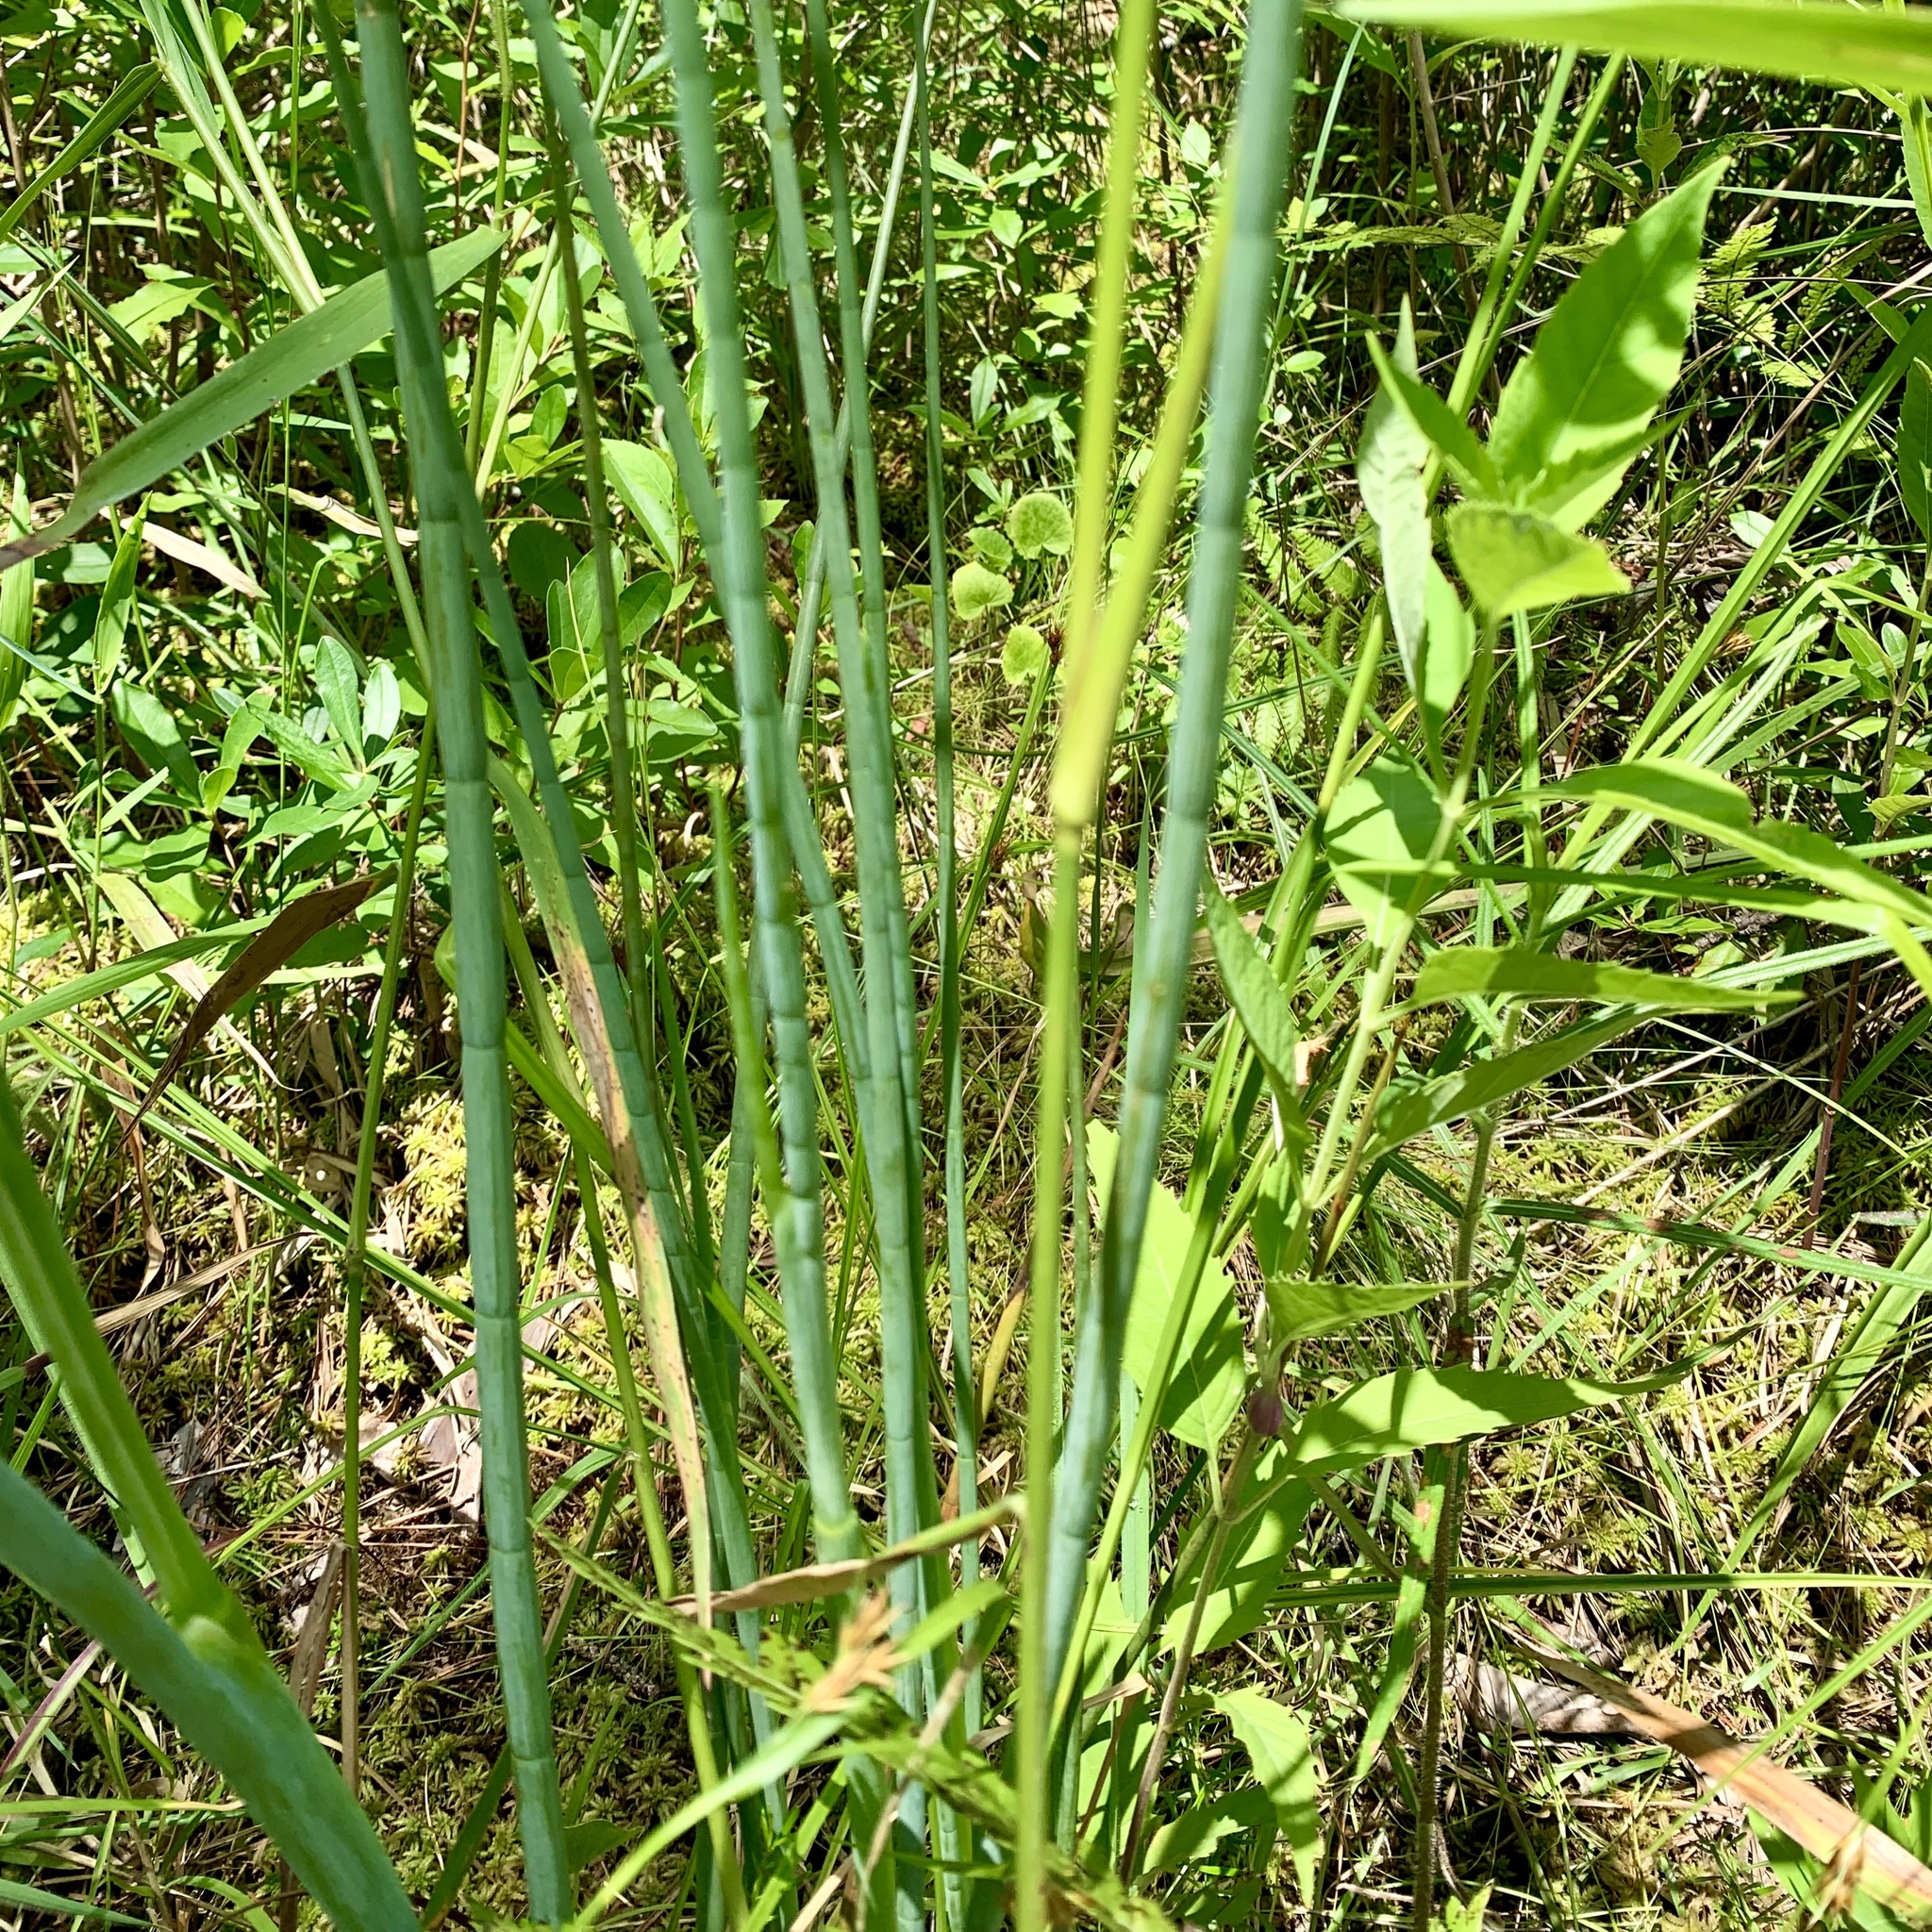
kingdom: Plantae
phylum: Tracheophyta
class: Magnoliopsida
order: Apiales
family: Apiaceae
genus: Tiedemannia
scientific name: Tiedemannia filiformis
